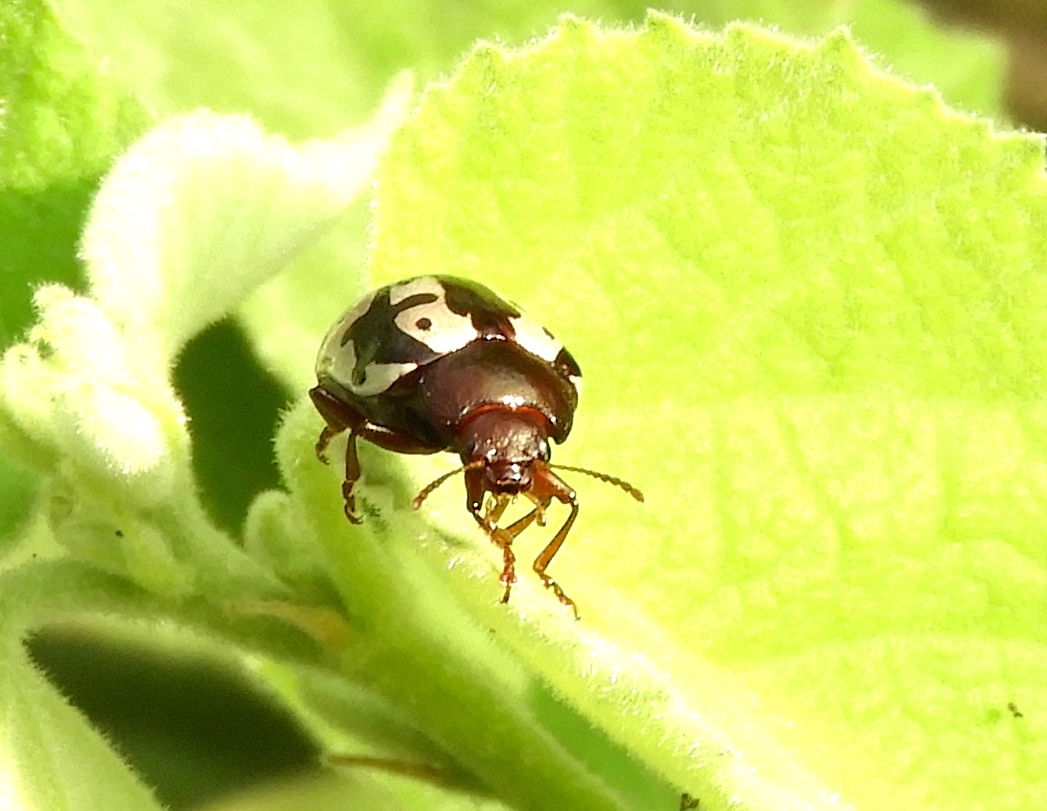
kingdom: Animalia
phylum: Arthropoda
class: Insecta
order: Coleoptera
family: Chrysomelidae
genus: Calligrapha
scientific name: Calligrapha intermedia
